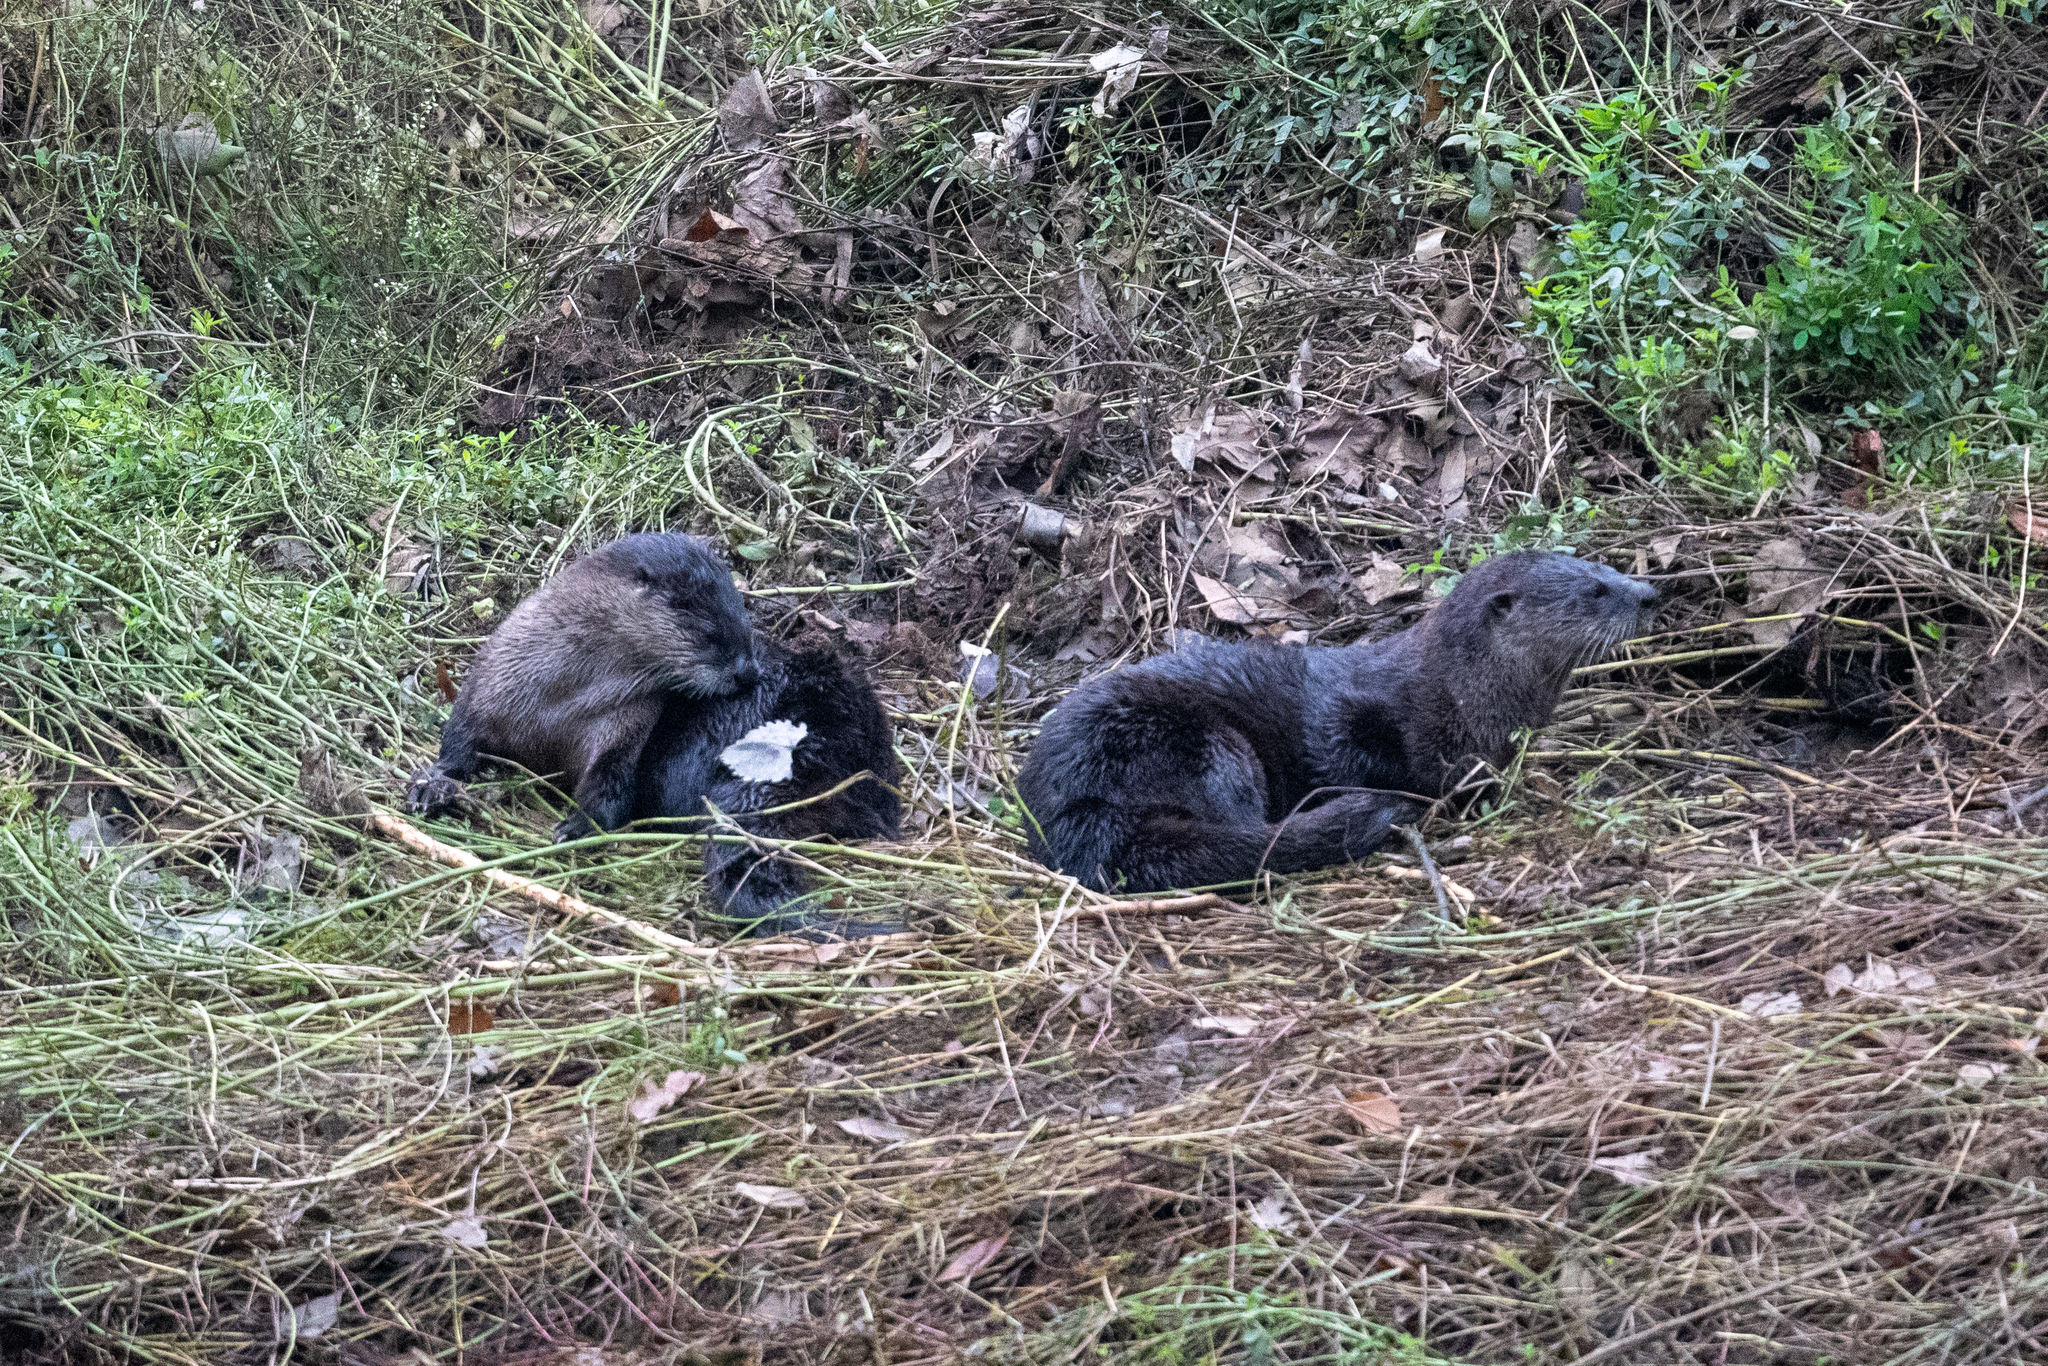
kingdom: Animalia
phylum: Chordata
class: Mammalia
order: Carnivora
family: Mustelidae
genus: Lontra
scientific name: Lontra canadensis
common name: North american river otter
